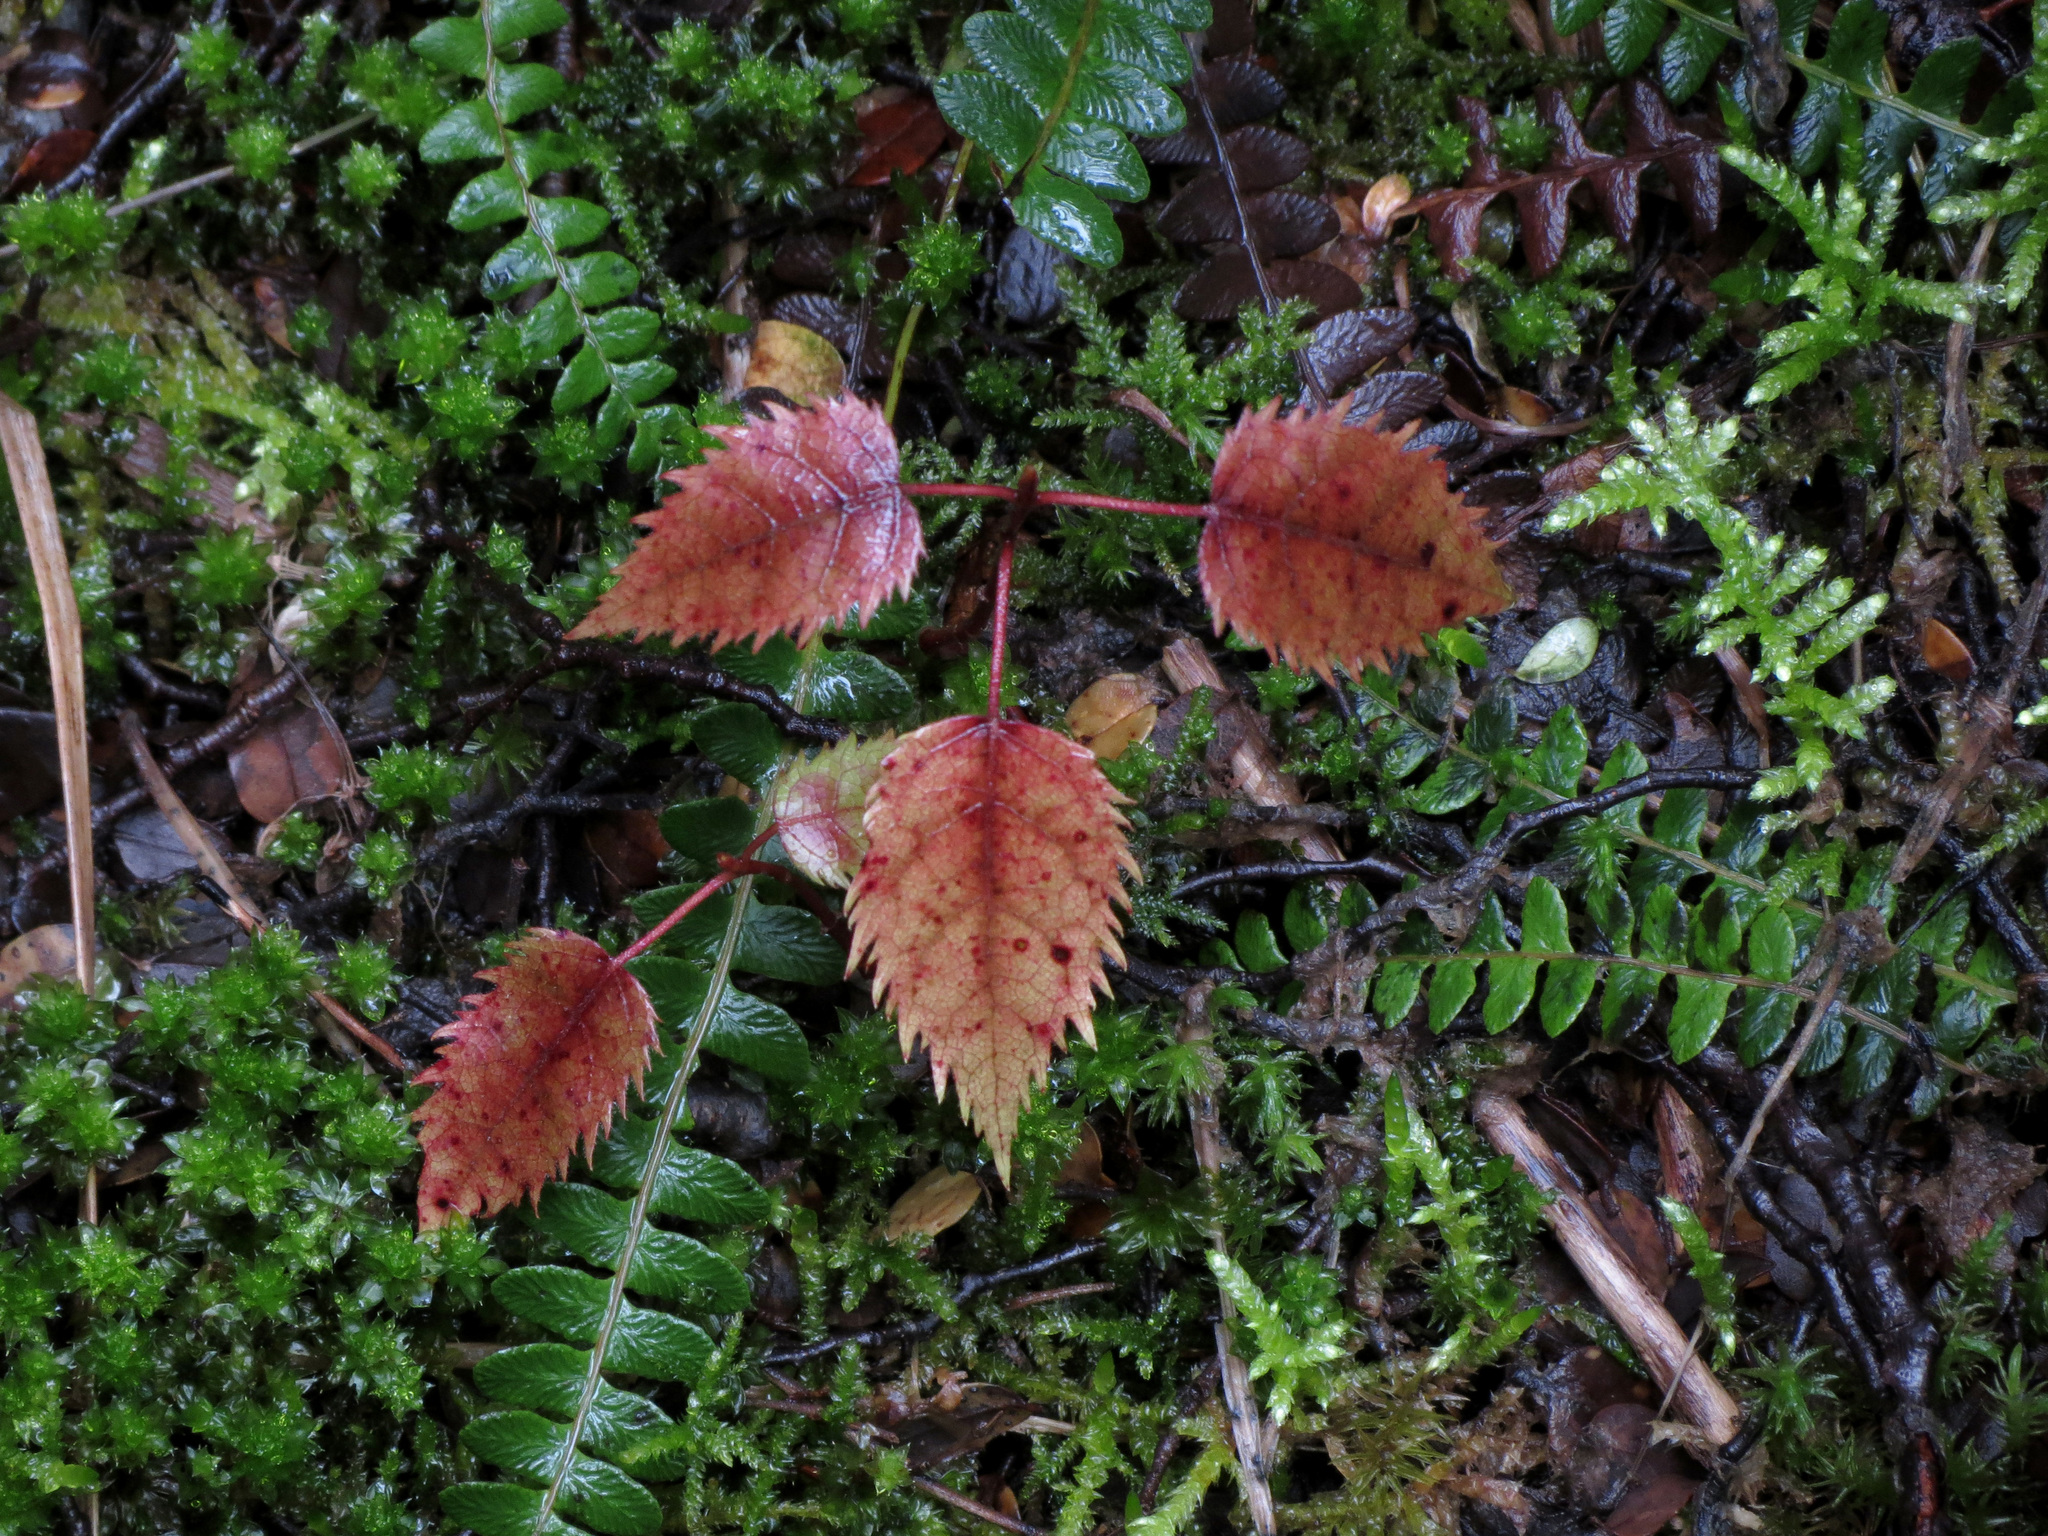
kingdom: Plantae
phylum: Tracheophyta
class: Magnoliopsida
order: Oxalidales
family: Elaeocarpaceae
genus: Aristotelia
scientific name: Aristotelia serrata
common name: New zealand wineberry
